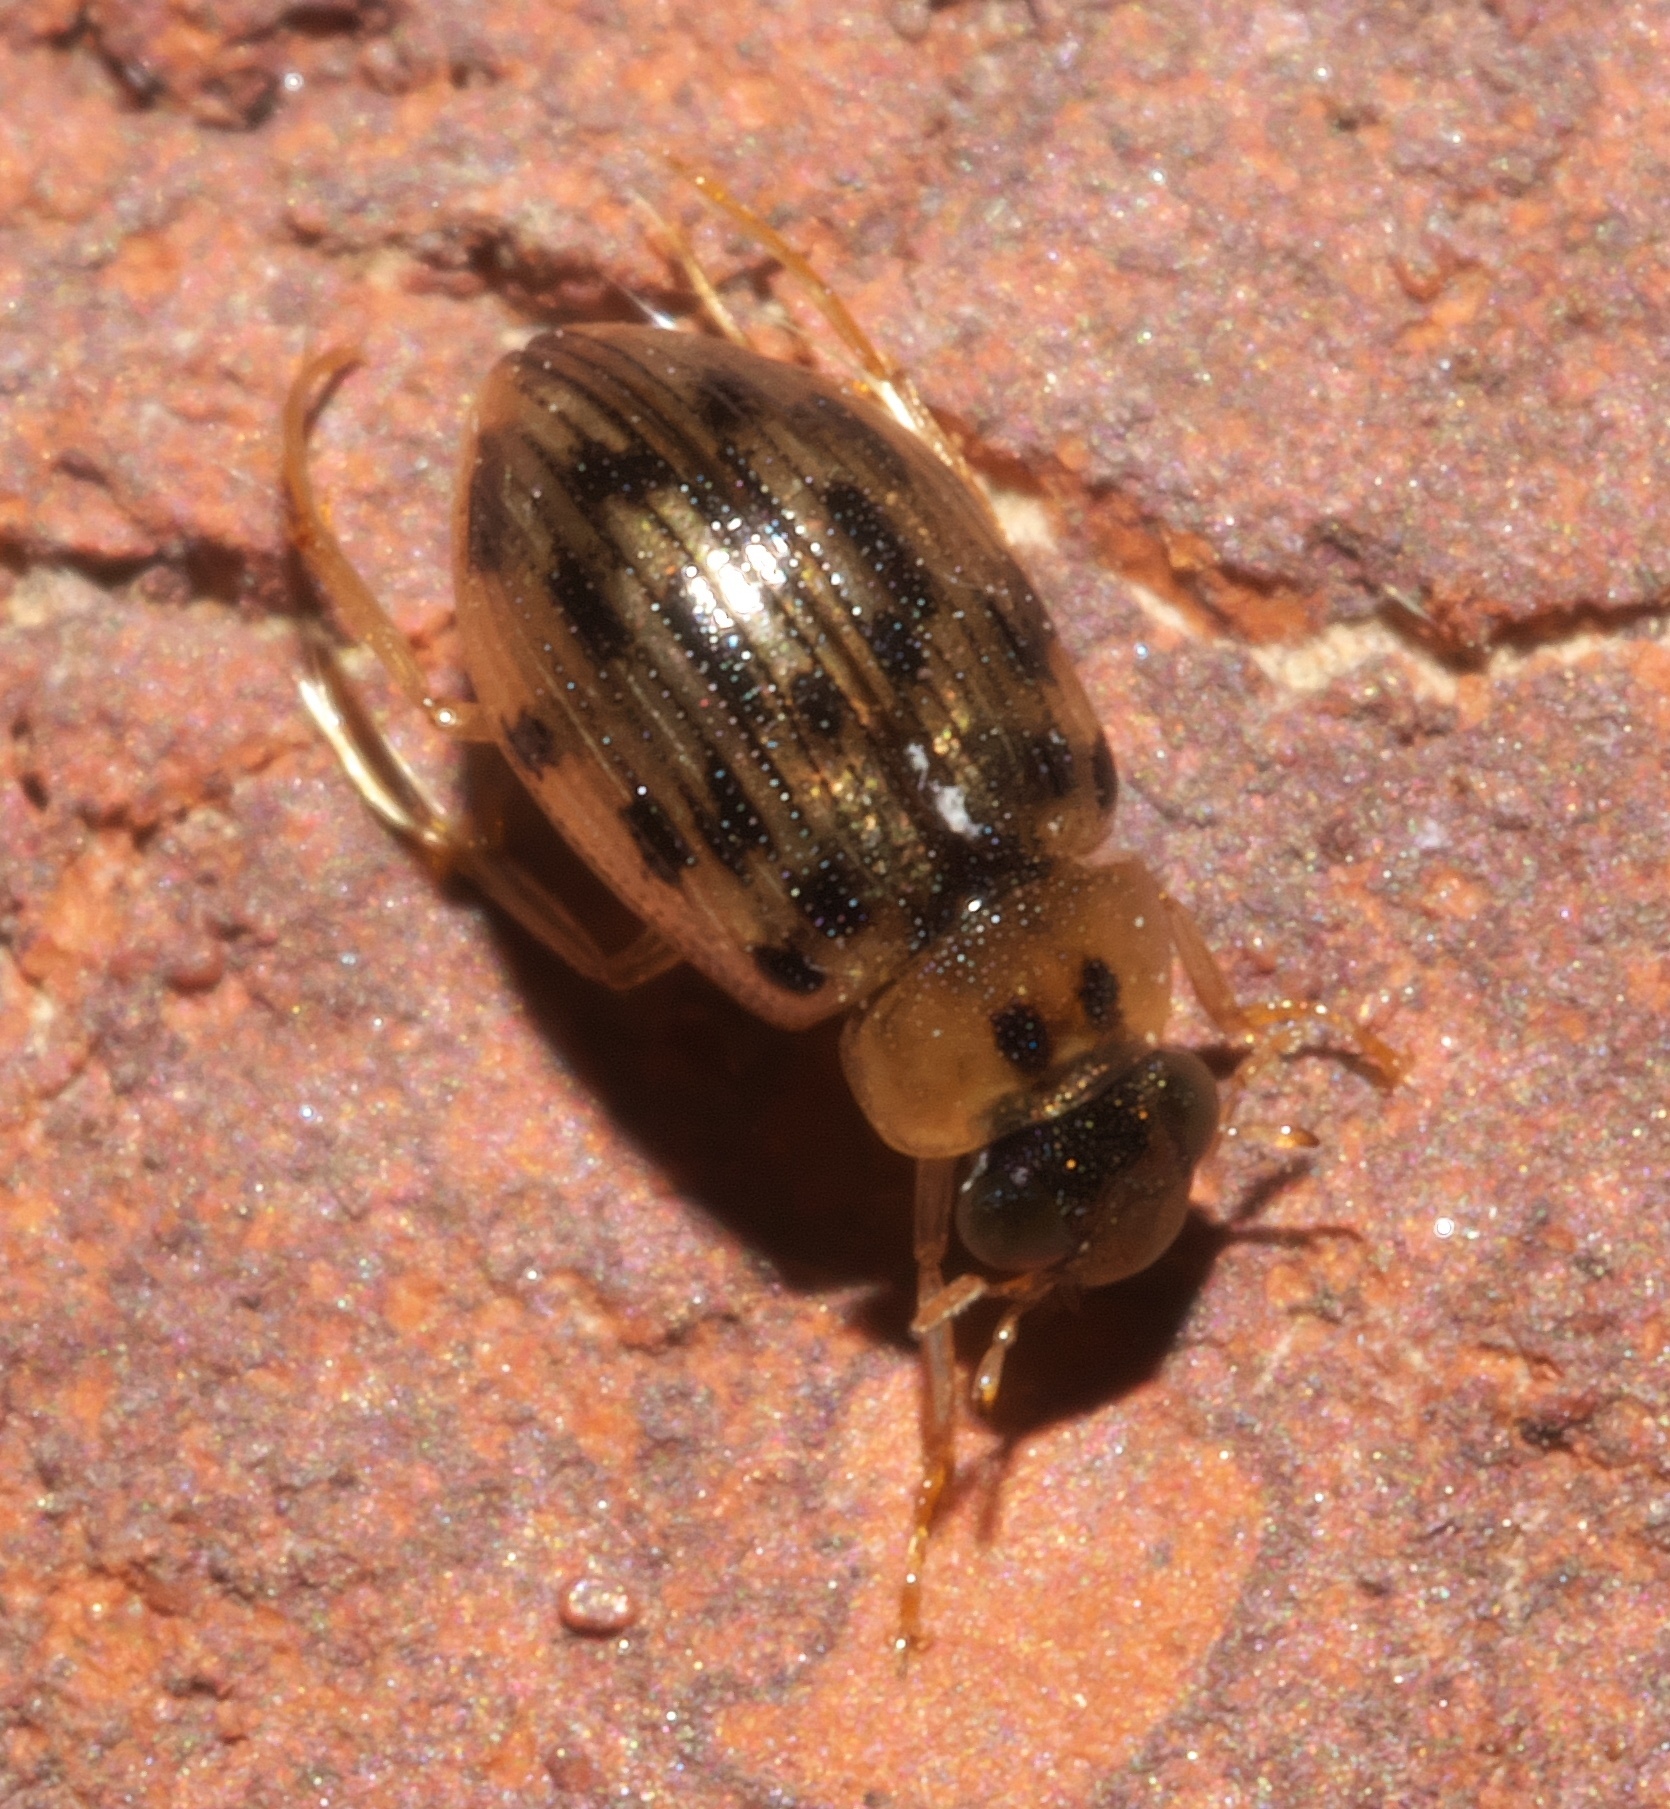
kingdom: Animalia
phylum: Arthropoda
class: Insecta
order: Coleoptera
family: Hydrophilidae
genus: Berosus
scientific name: Berosus pantherinus
